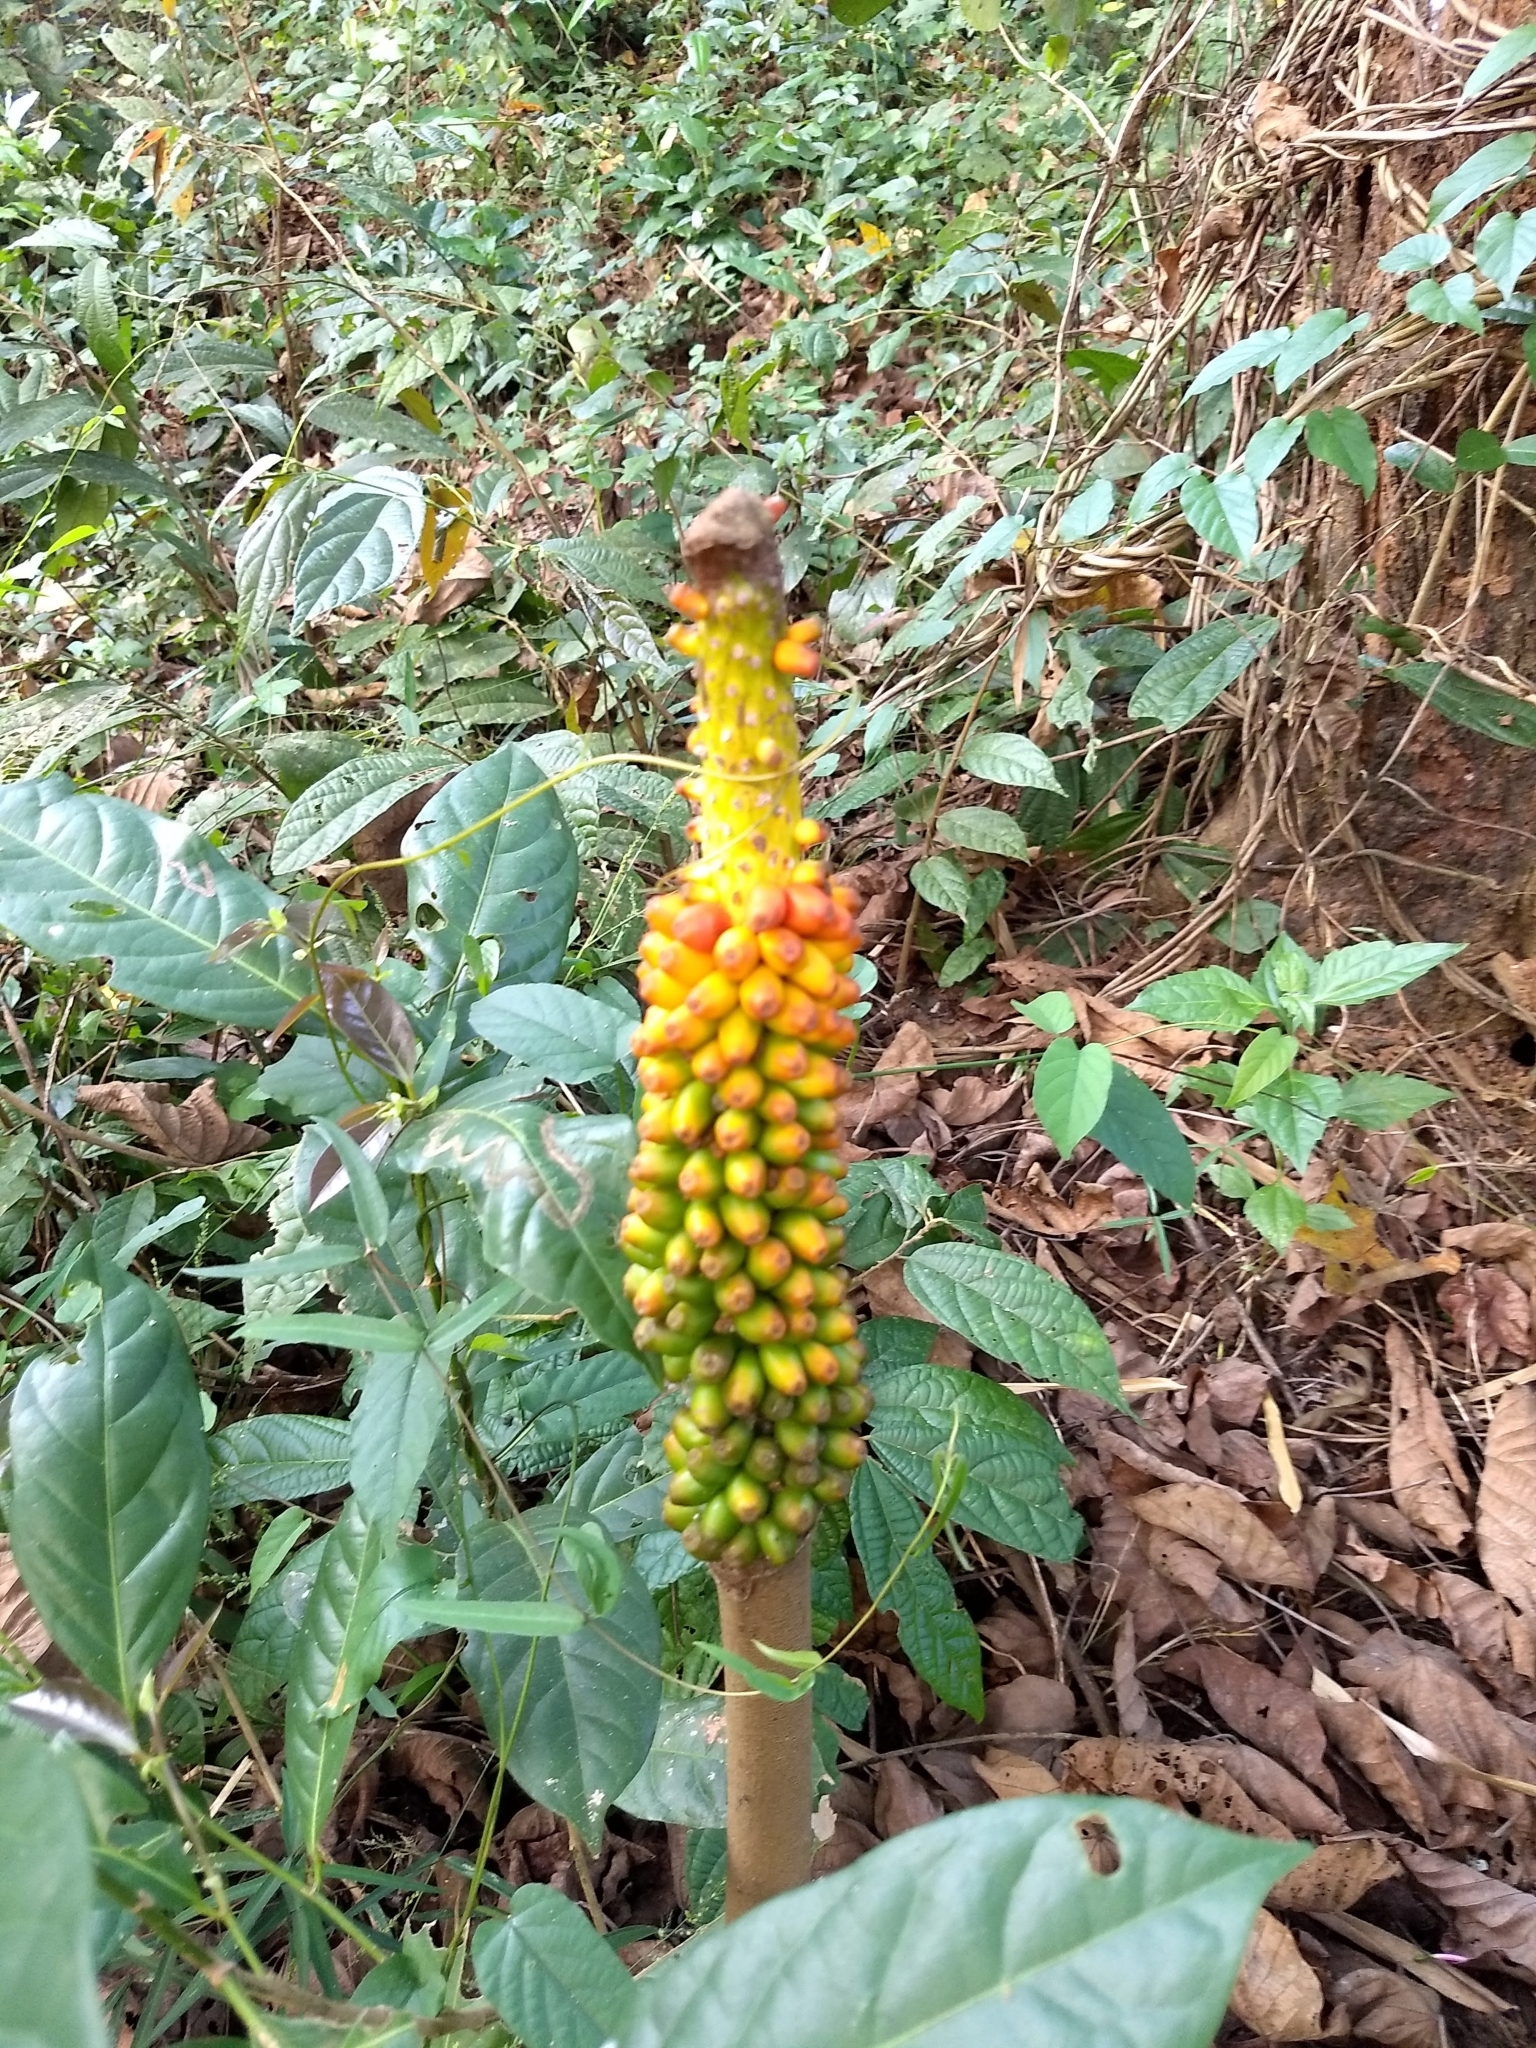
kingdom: Plantae
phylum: Tracheophyta
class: Liliopsida
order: Alismatales
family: Araceae
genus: Amorphophallus
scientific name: Amorphophallus paeoniifolius
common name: Telinga-potato
